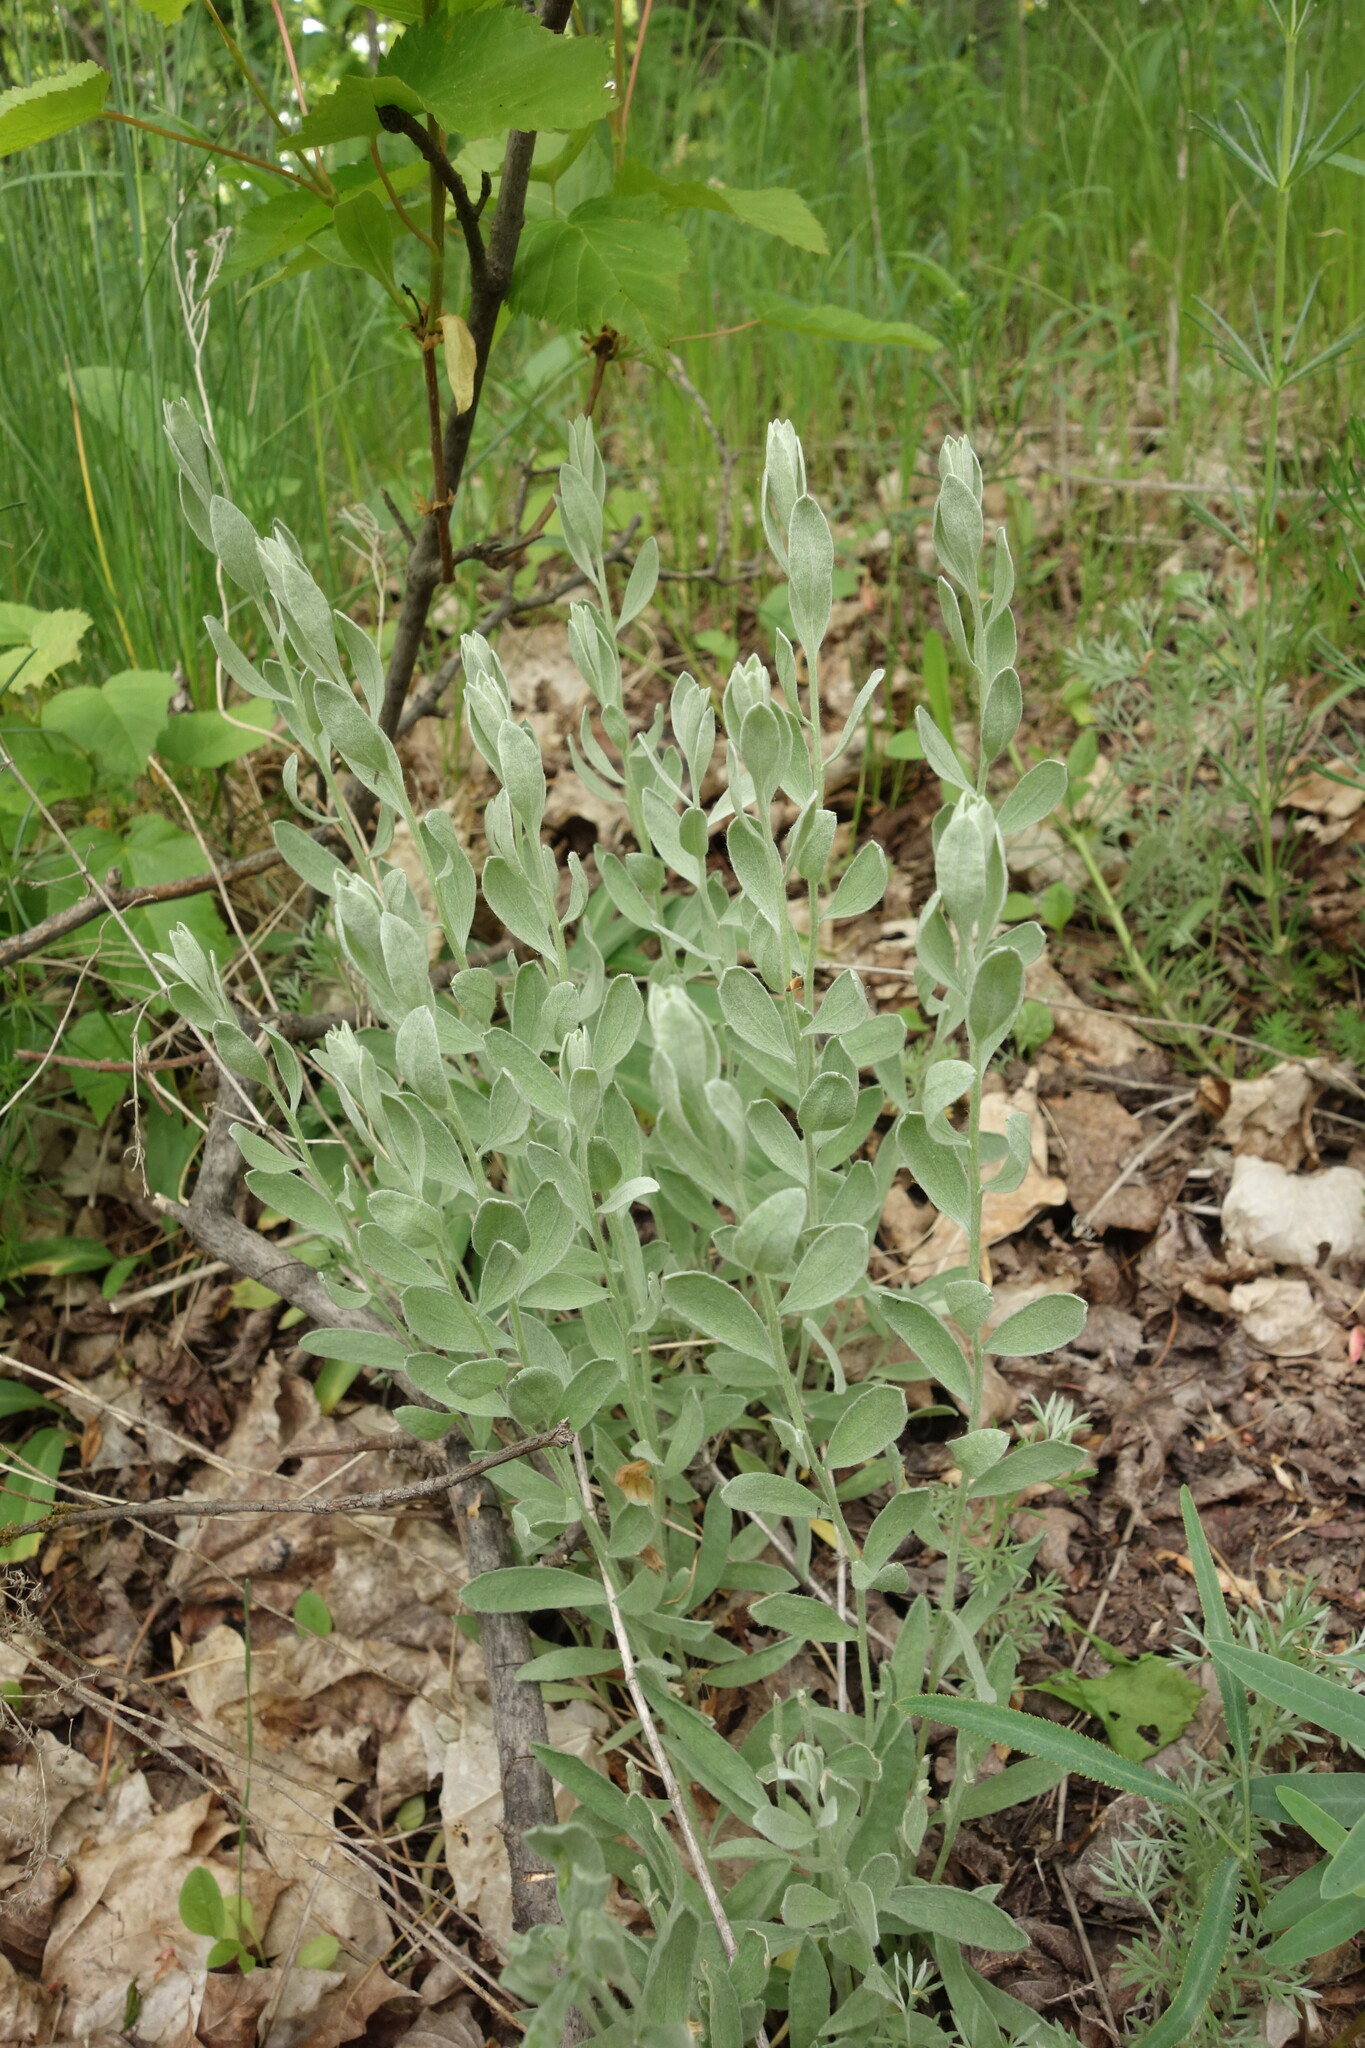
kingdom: Plantae
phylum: Tracheophyta
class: Magnoliopsida
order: Asterales
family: Asteraceae
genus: Galatella
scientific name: Galatella villosa
